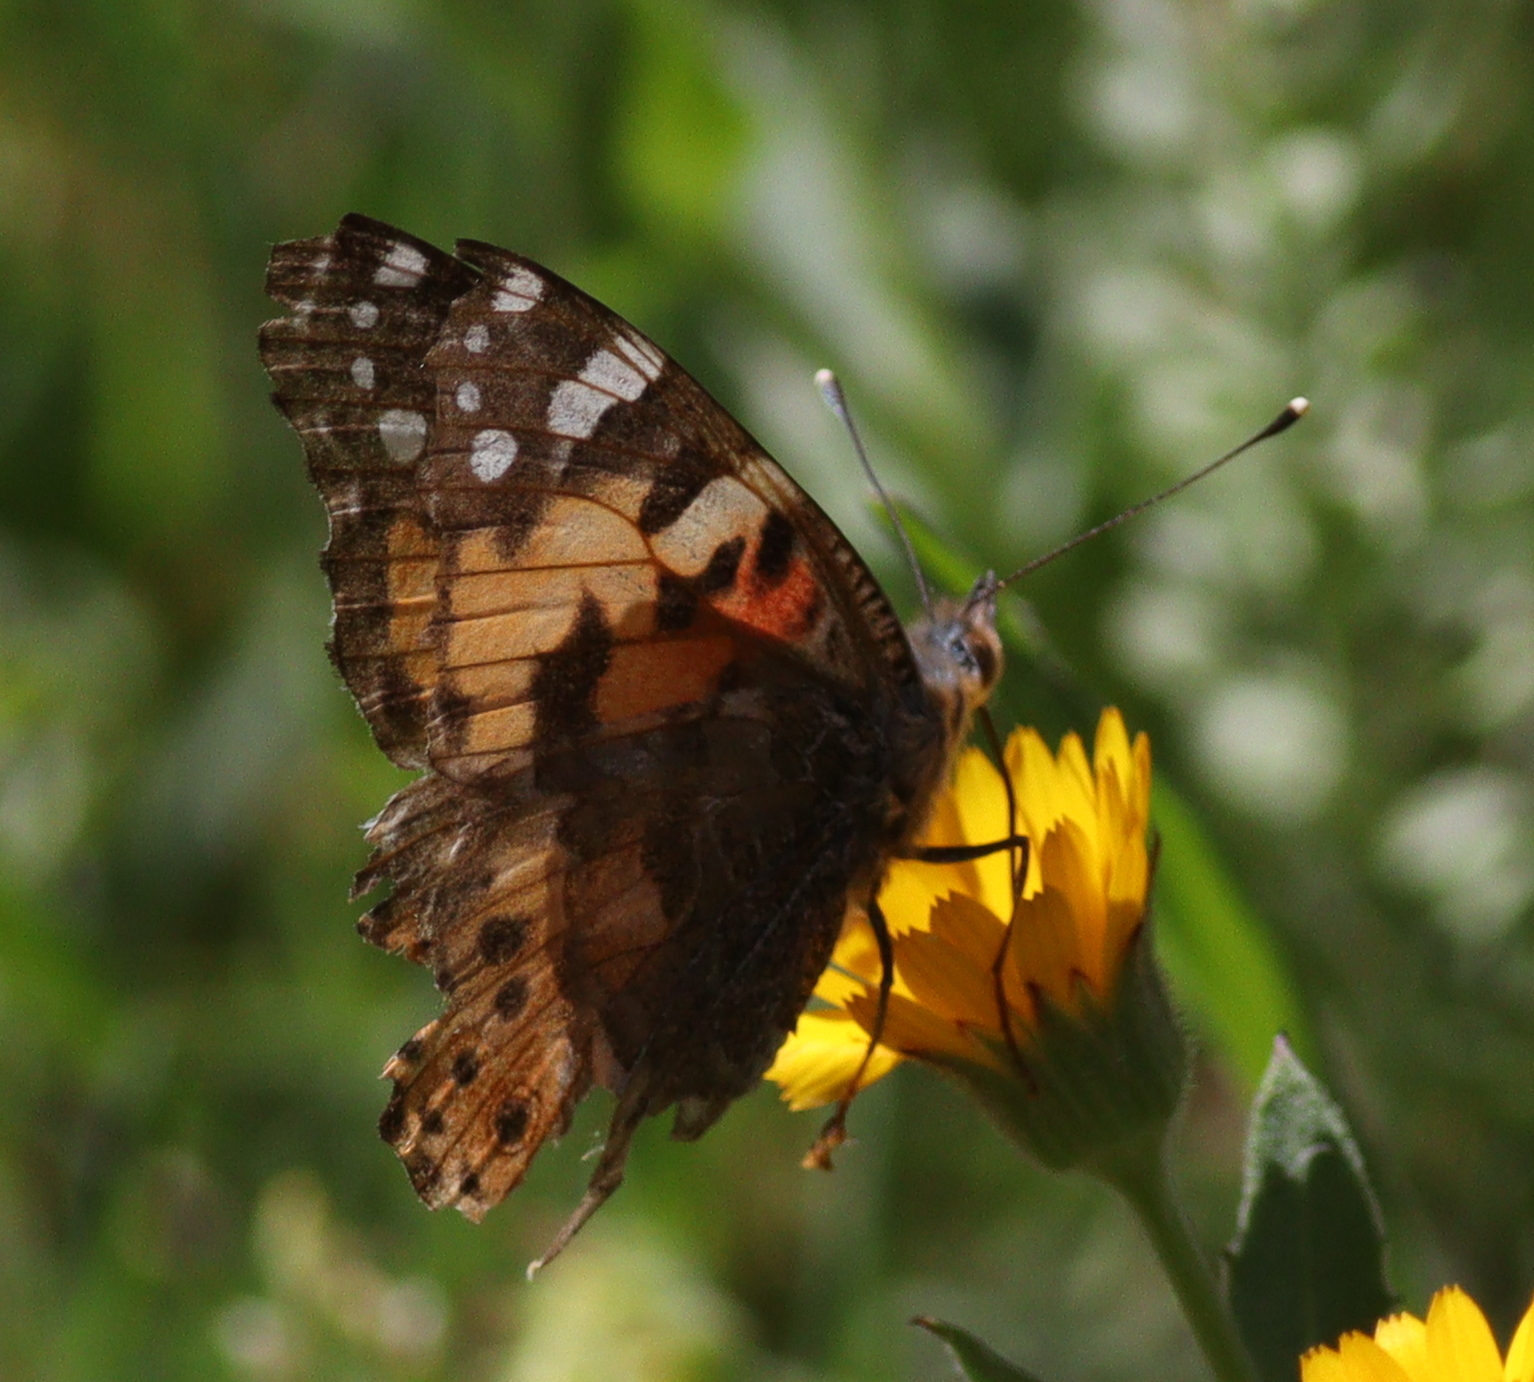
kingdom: Animalia
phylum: Arthropoda
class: Insecta
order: Lepidoptera
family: Nymphalidae
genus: Vanessa
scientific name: Vanessa cardui
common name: Painted lady
